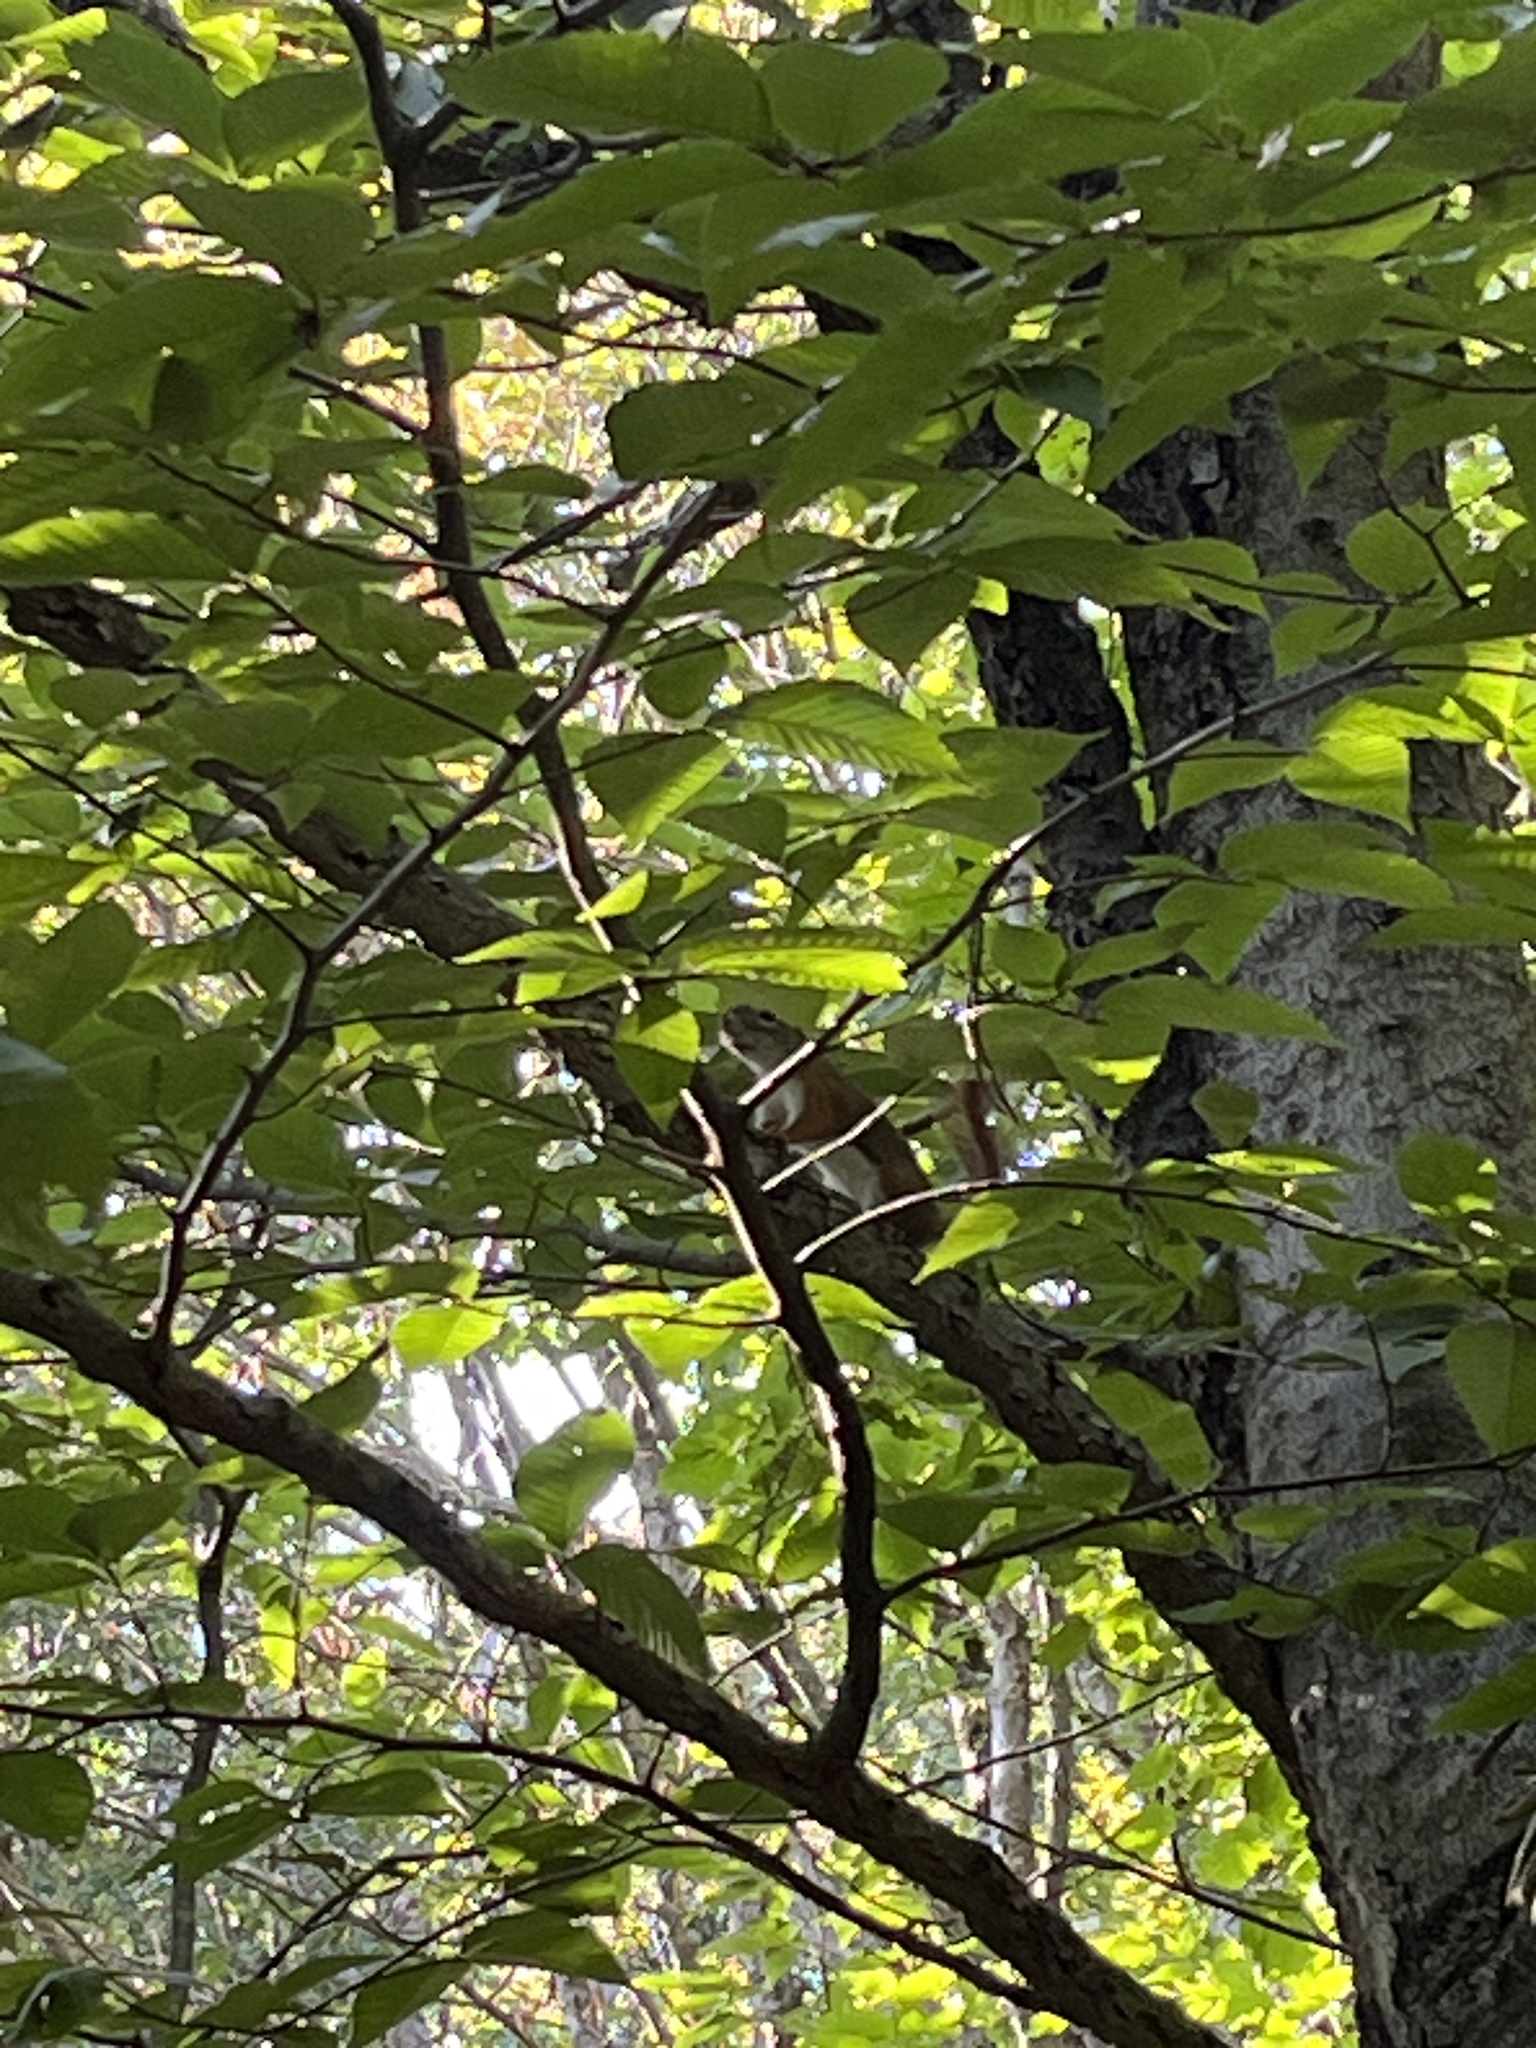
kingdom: Animalia
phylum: Chordata
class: Mammalia
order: Rodentia
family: Sciuridae
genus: Tamiasciurus
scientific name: Tamiasciurus hudsonicus
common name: Red squirrel
